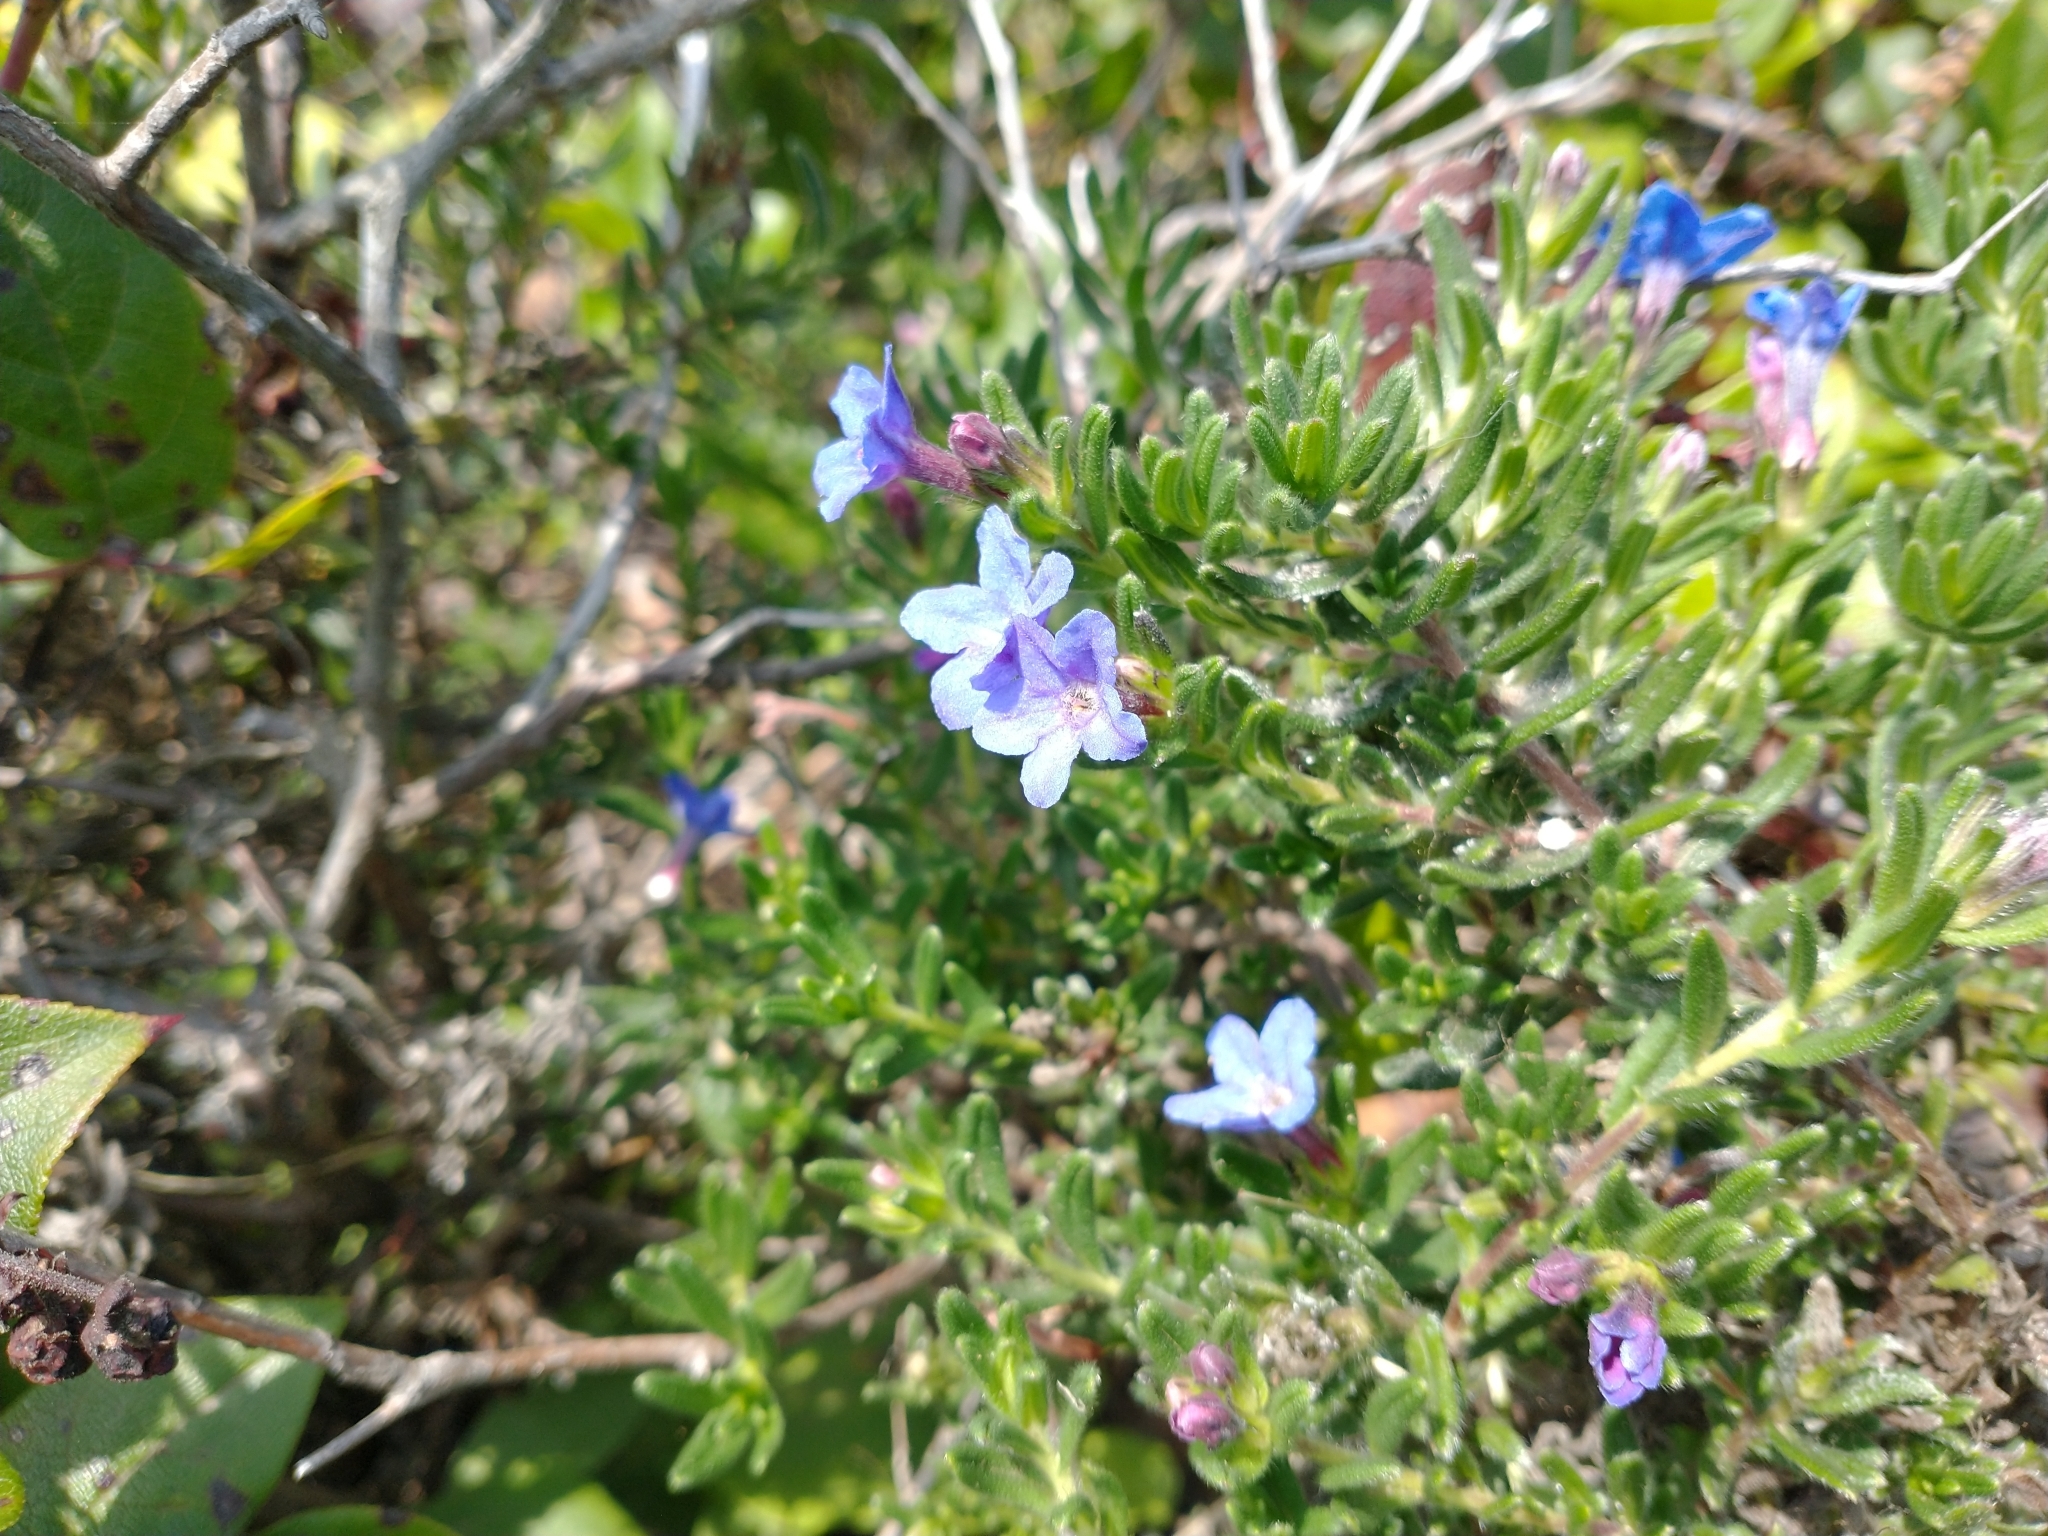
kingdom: Plantae
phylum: Tracheophyta
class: Magnoliopsida
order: Boraginales
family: Boraginaceae
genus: Glandora
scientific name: Glandora prostrata
